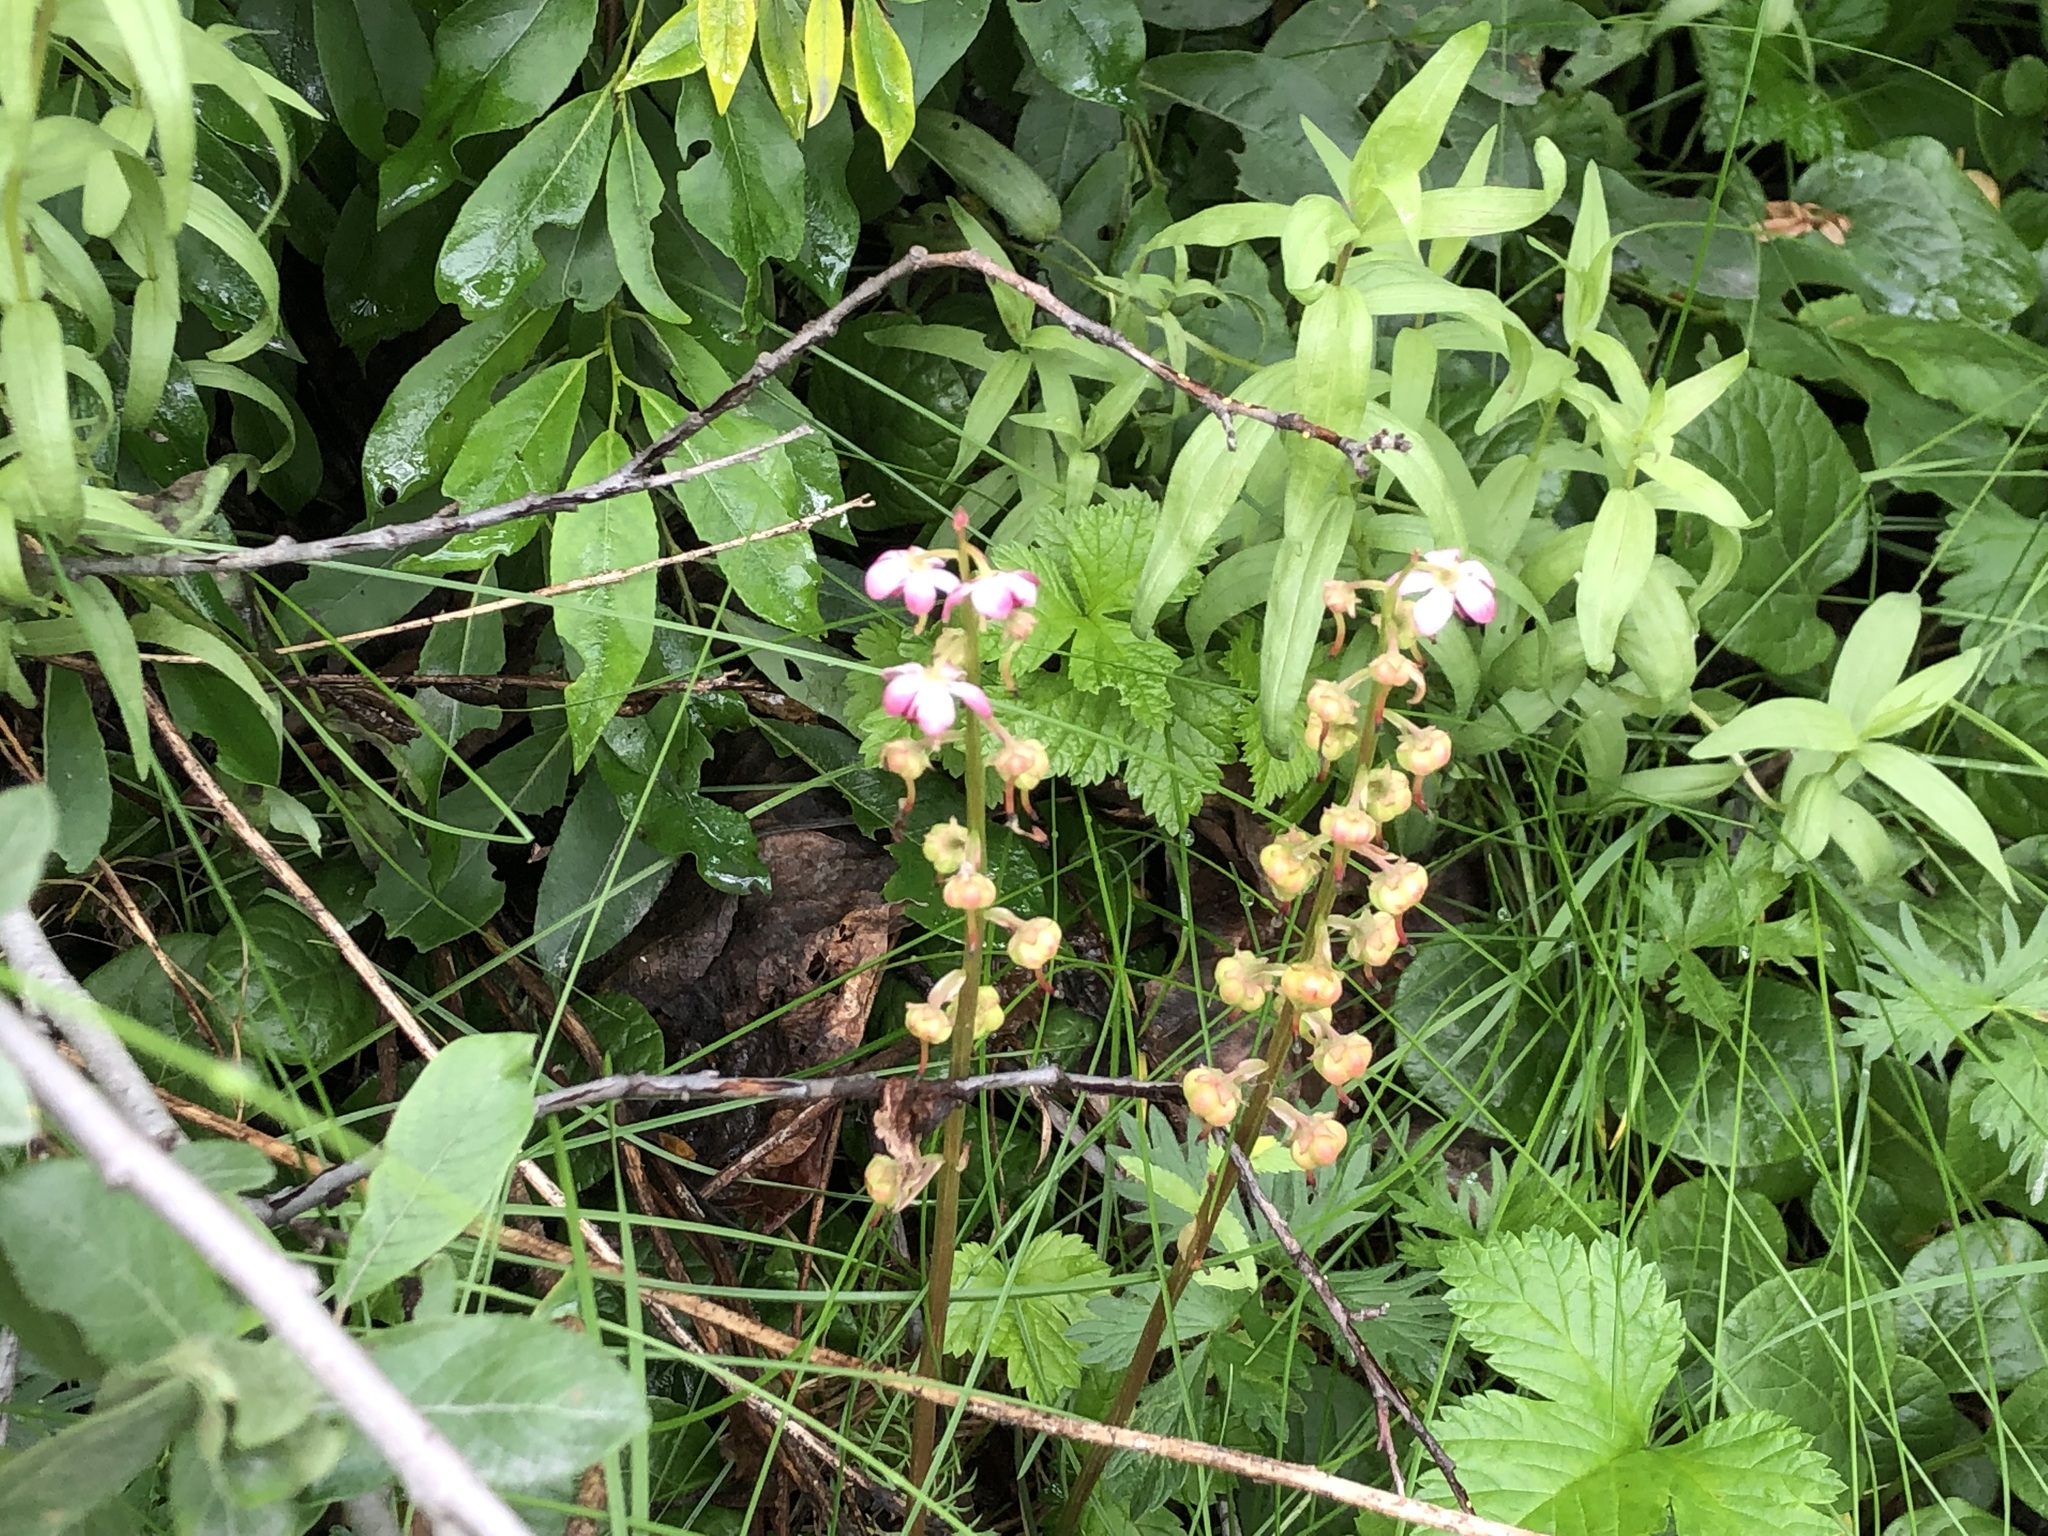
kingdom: Plantae
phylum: Tracheophyta
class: Magnoliopsida
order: Ericales
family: Ericaceae
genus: Pyrola
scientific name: Pyrola asarifolia
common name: Bog wintergreen
